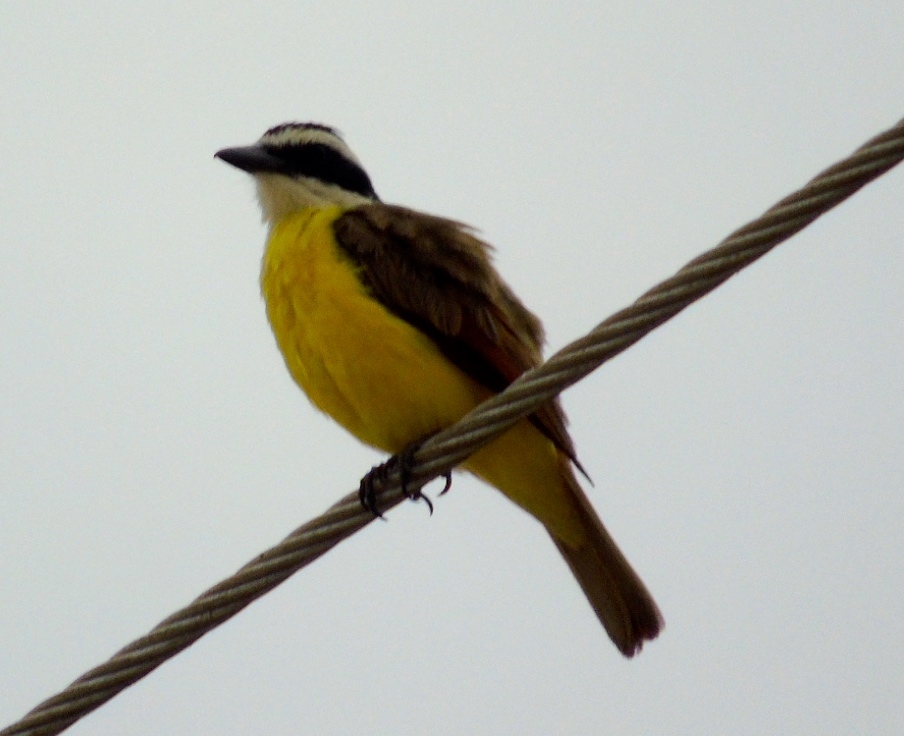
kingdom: Animalia
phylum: Chordata
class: Aves
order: Passeriformes
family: Tyrannidae
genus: Pitangus
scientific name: Pitangus sulphuratus
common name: Great kiskadee
